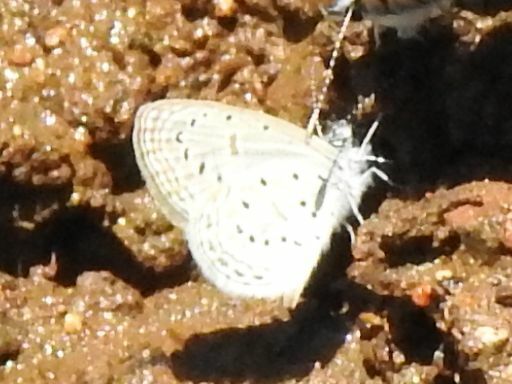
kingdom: Animalia
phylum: Arthropoda
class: Insecta
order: Lepidoptera
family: Lycaenidae
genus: Zizula
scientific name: Zizula hylax
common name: Gaika blue
